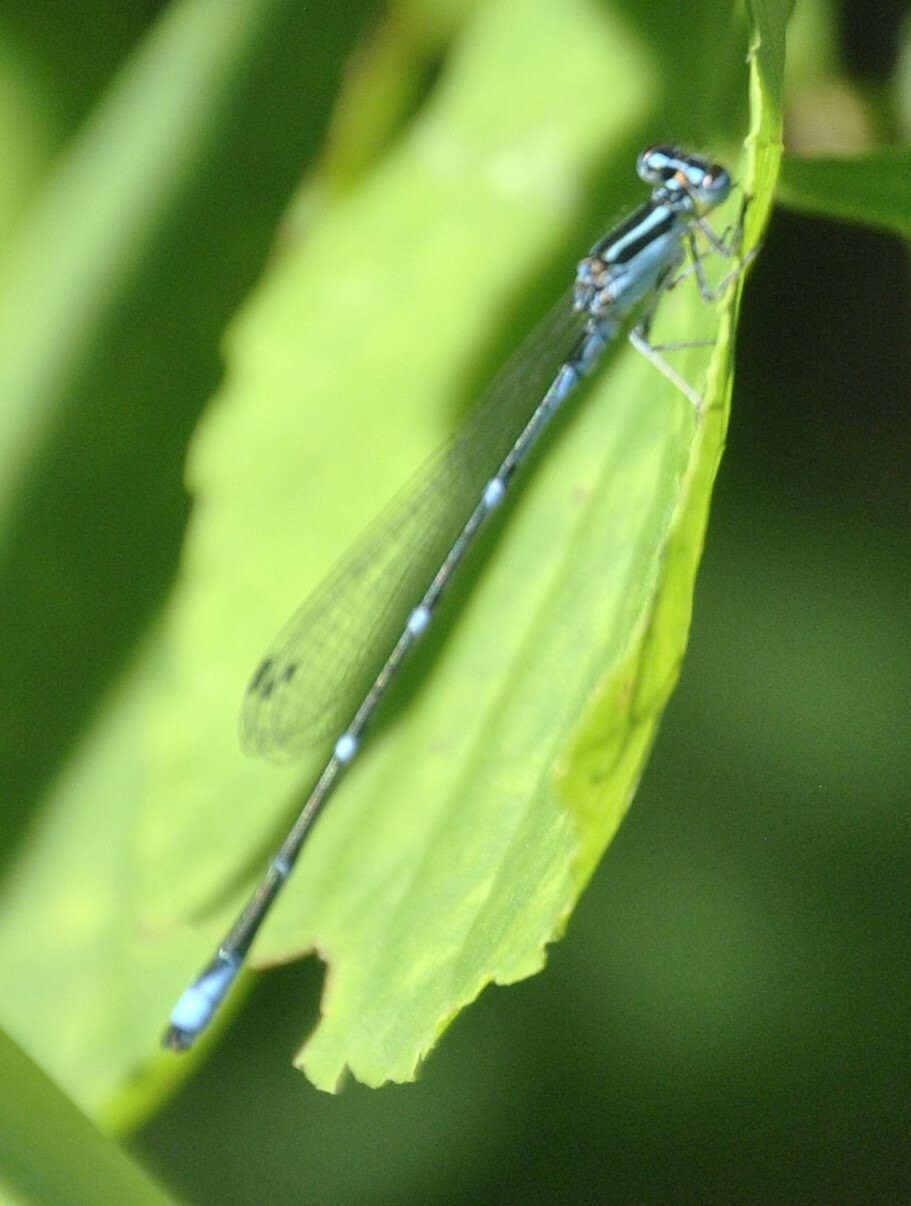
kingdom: Animalia
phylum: Arthropoda
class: Insecta
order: Odonata
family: Coenagrionidae
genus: Enallagma
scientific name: Enallagma exsulans
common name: Stream bluet
